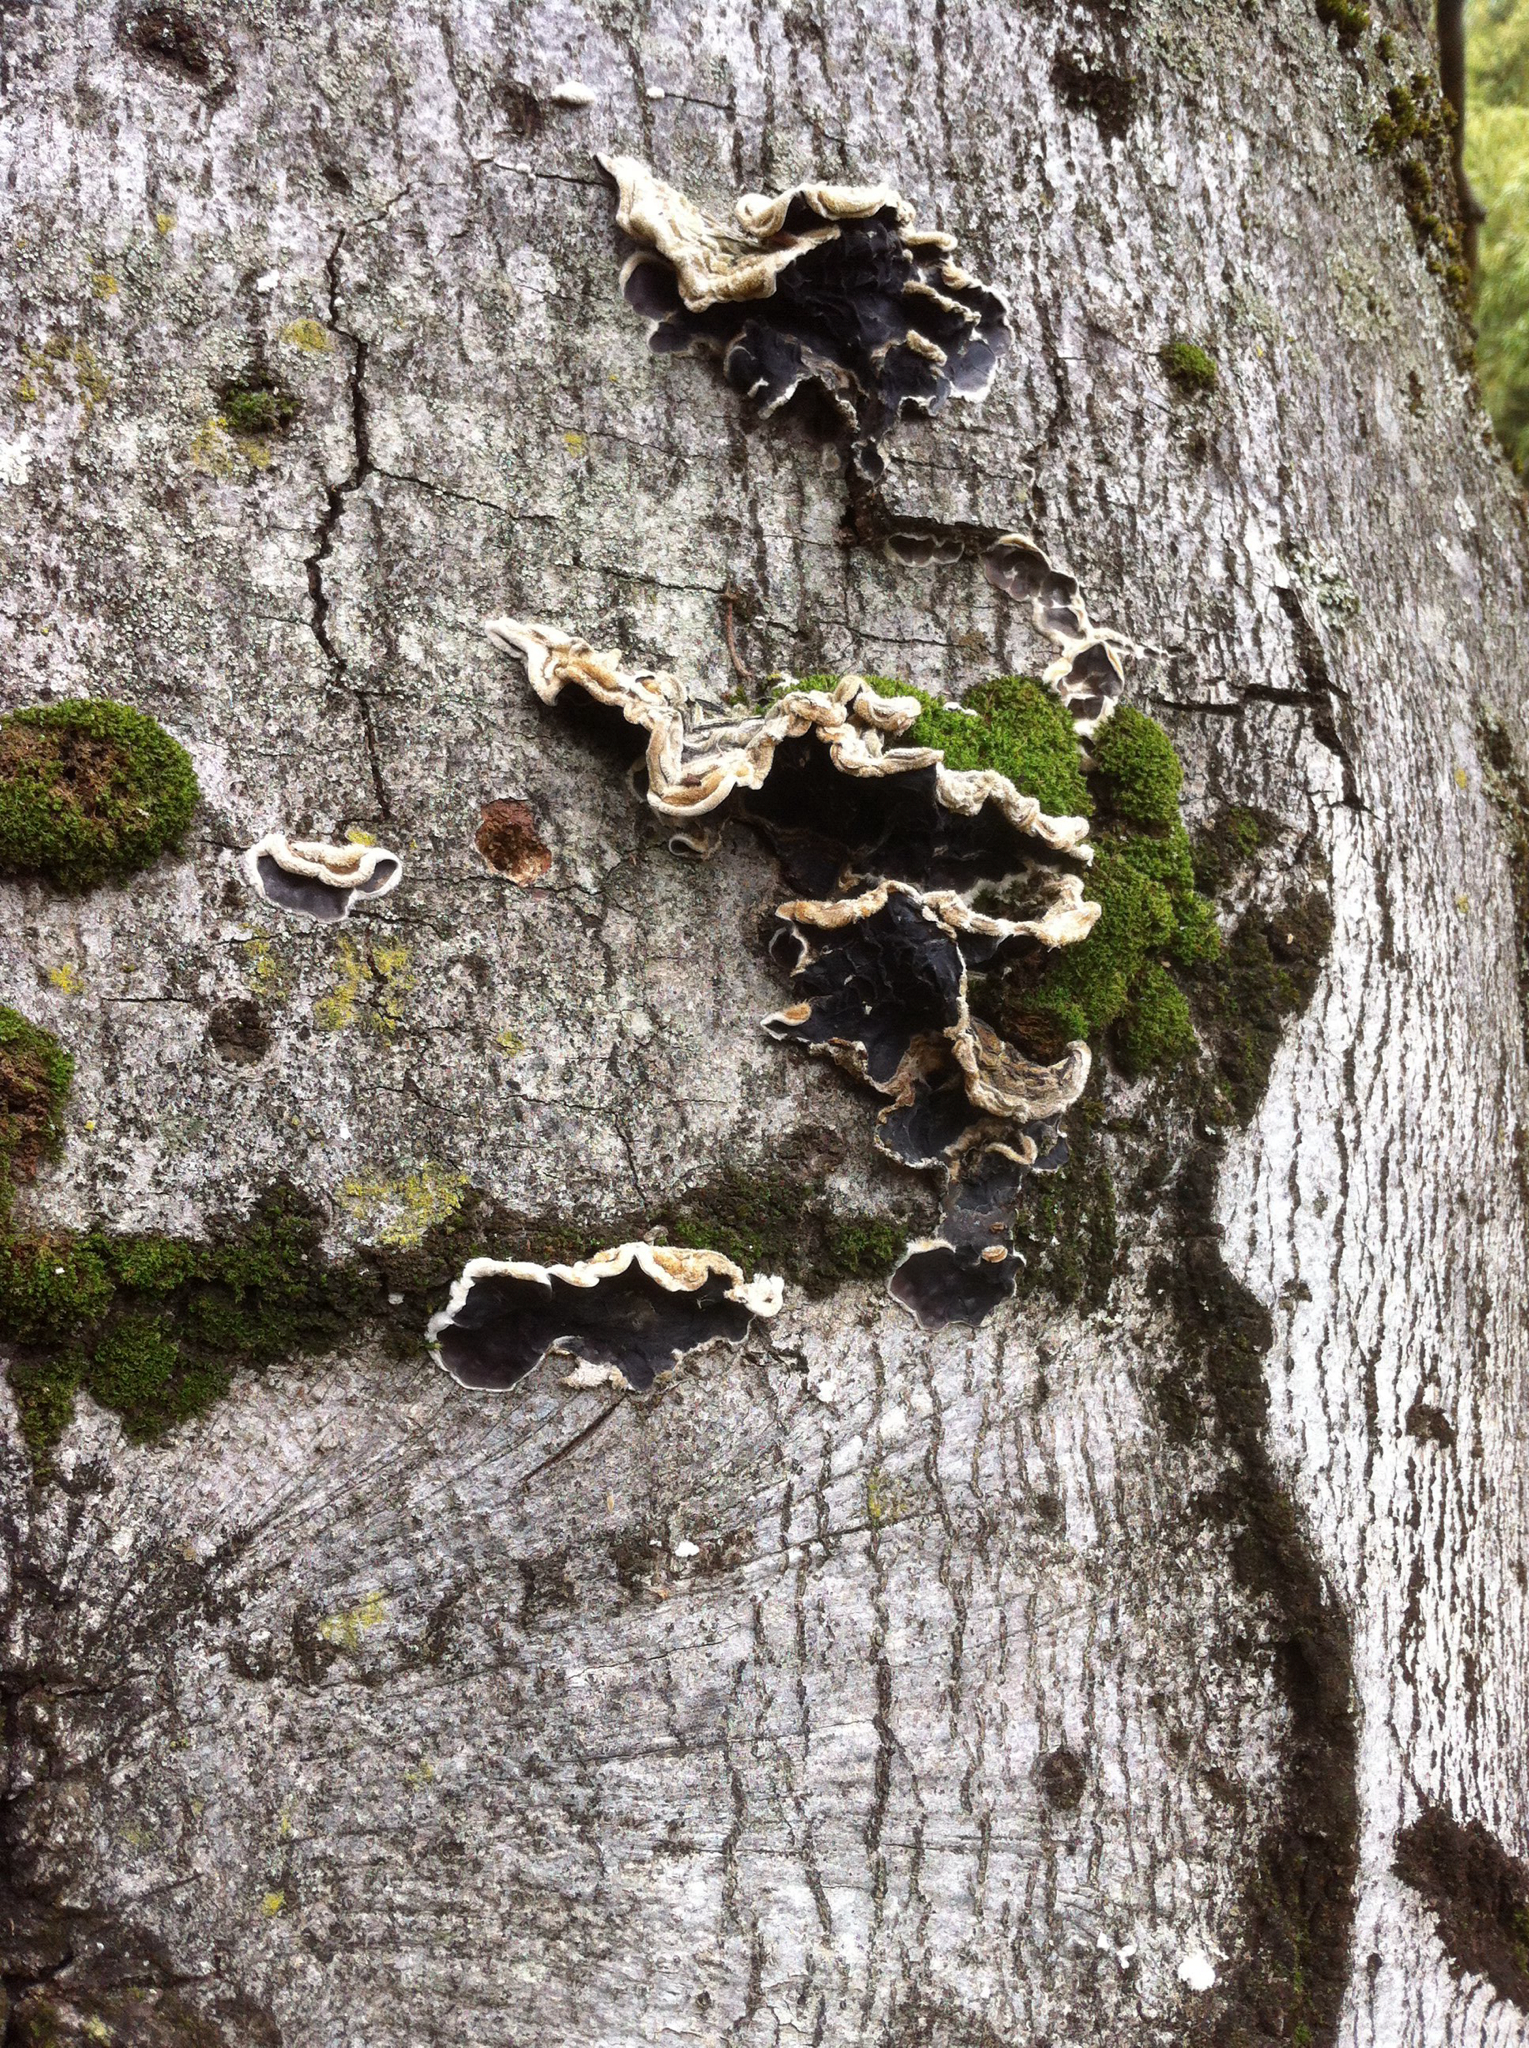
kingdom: Fungi
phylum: Basidiomycota
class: Agaricomycetes
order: Auriculariales
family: Auriculariaceae
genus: Auricularia
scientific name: Auricularia mesenterica
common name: Tripe fungus
